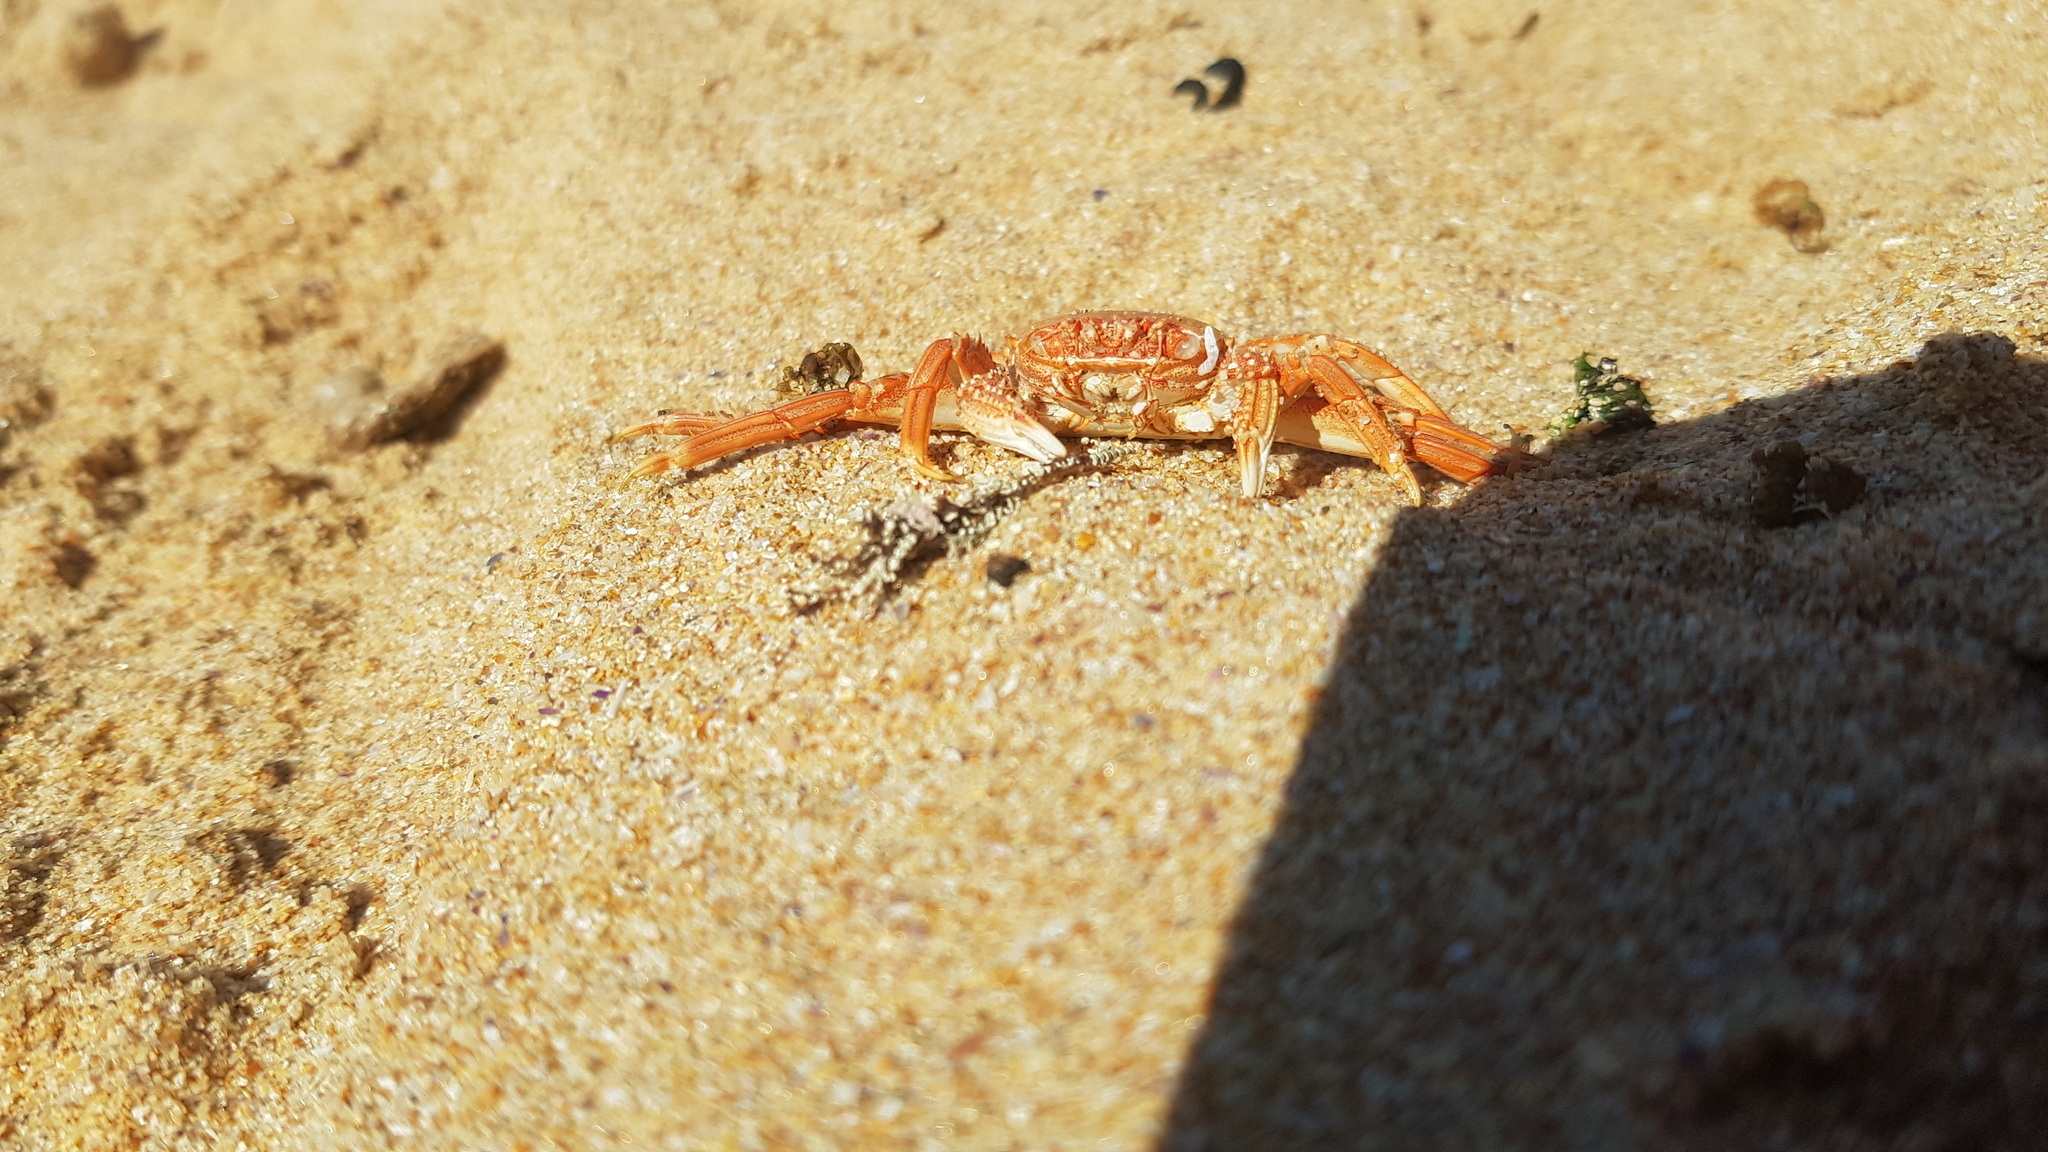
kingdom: Animalia
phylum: Arthropoda
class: Malacostraca
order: Decapoda
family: Plagusiidae
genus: Guinusia
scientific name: Guinusia chabrus
